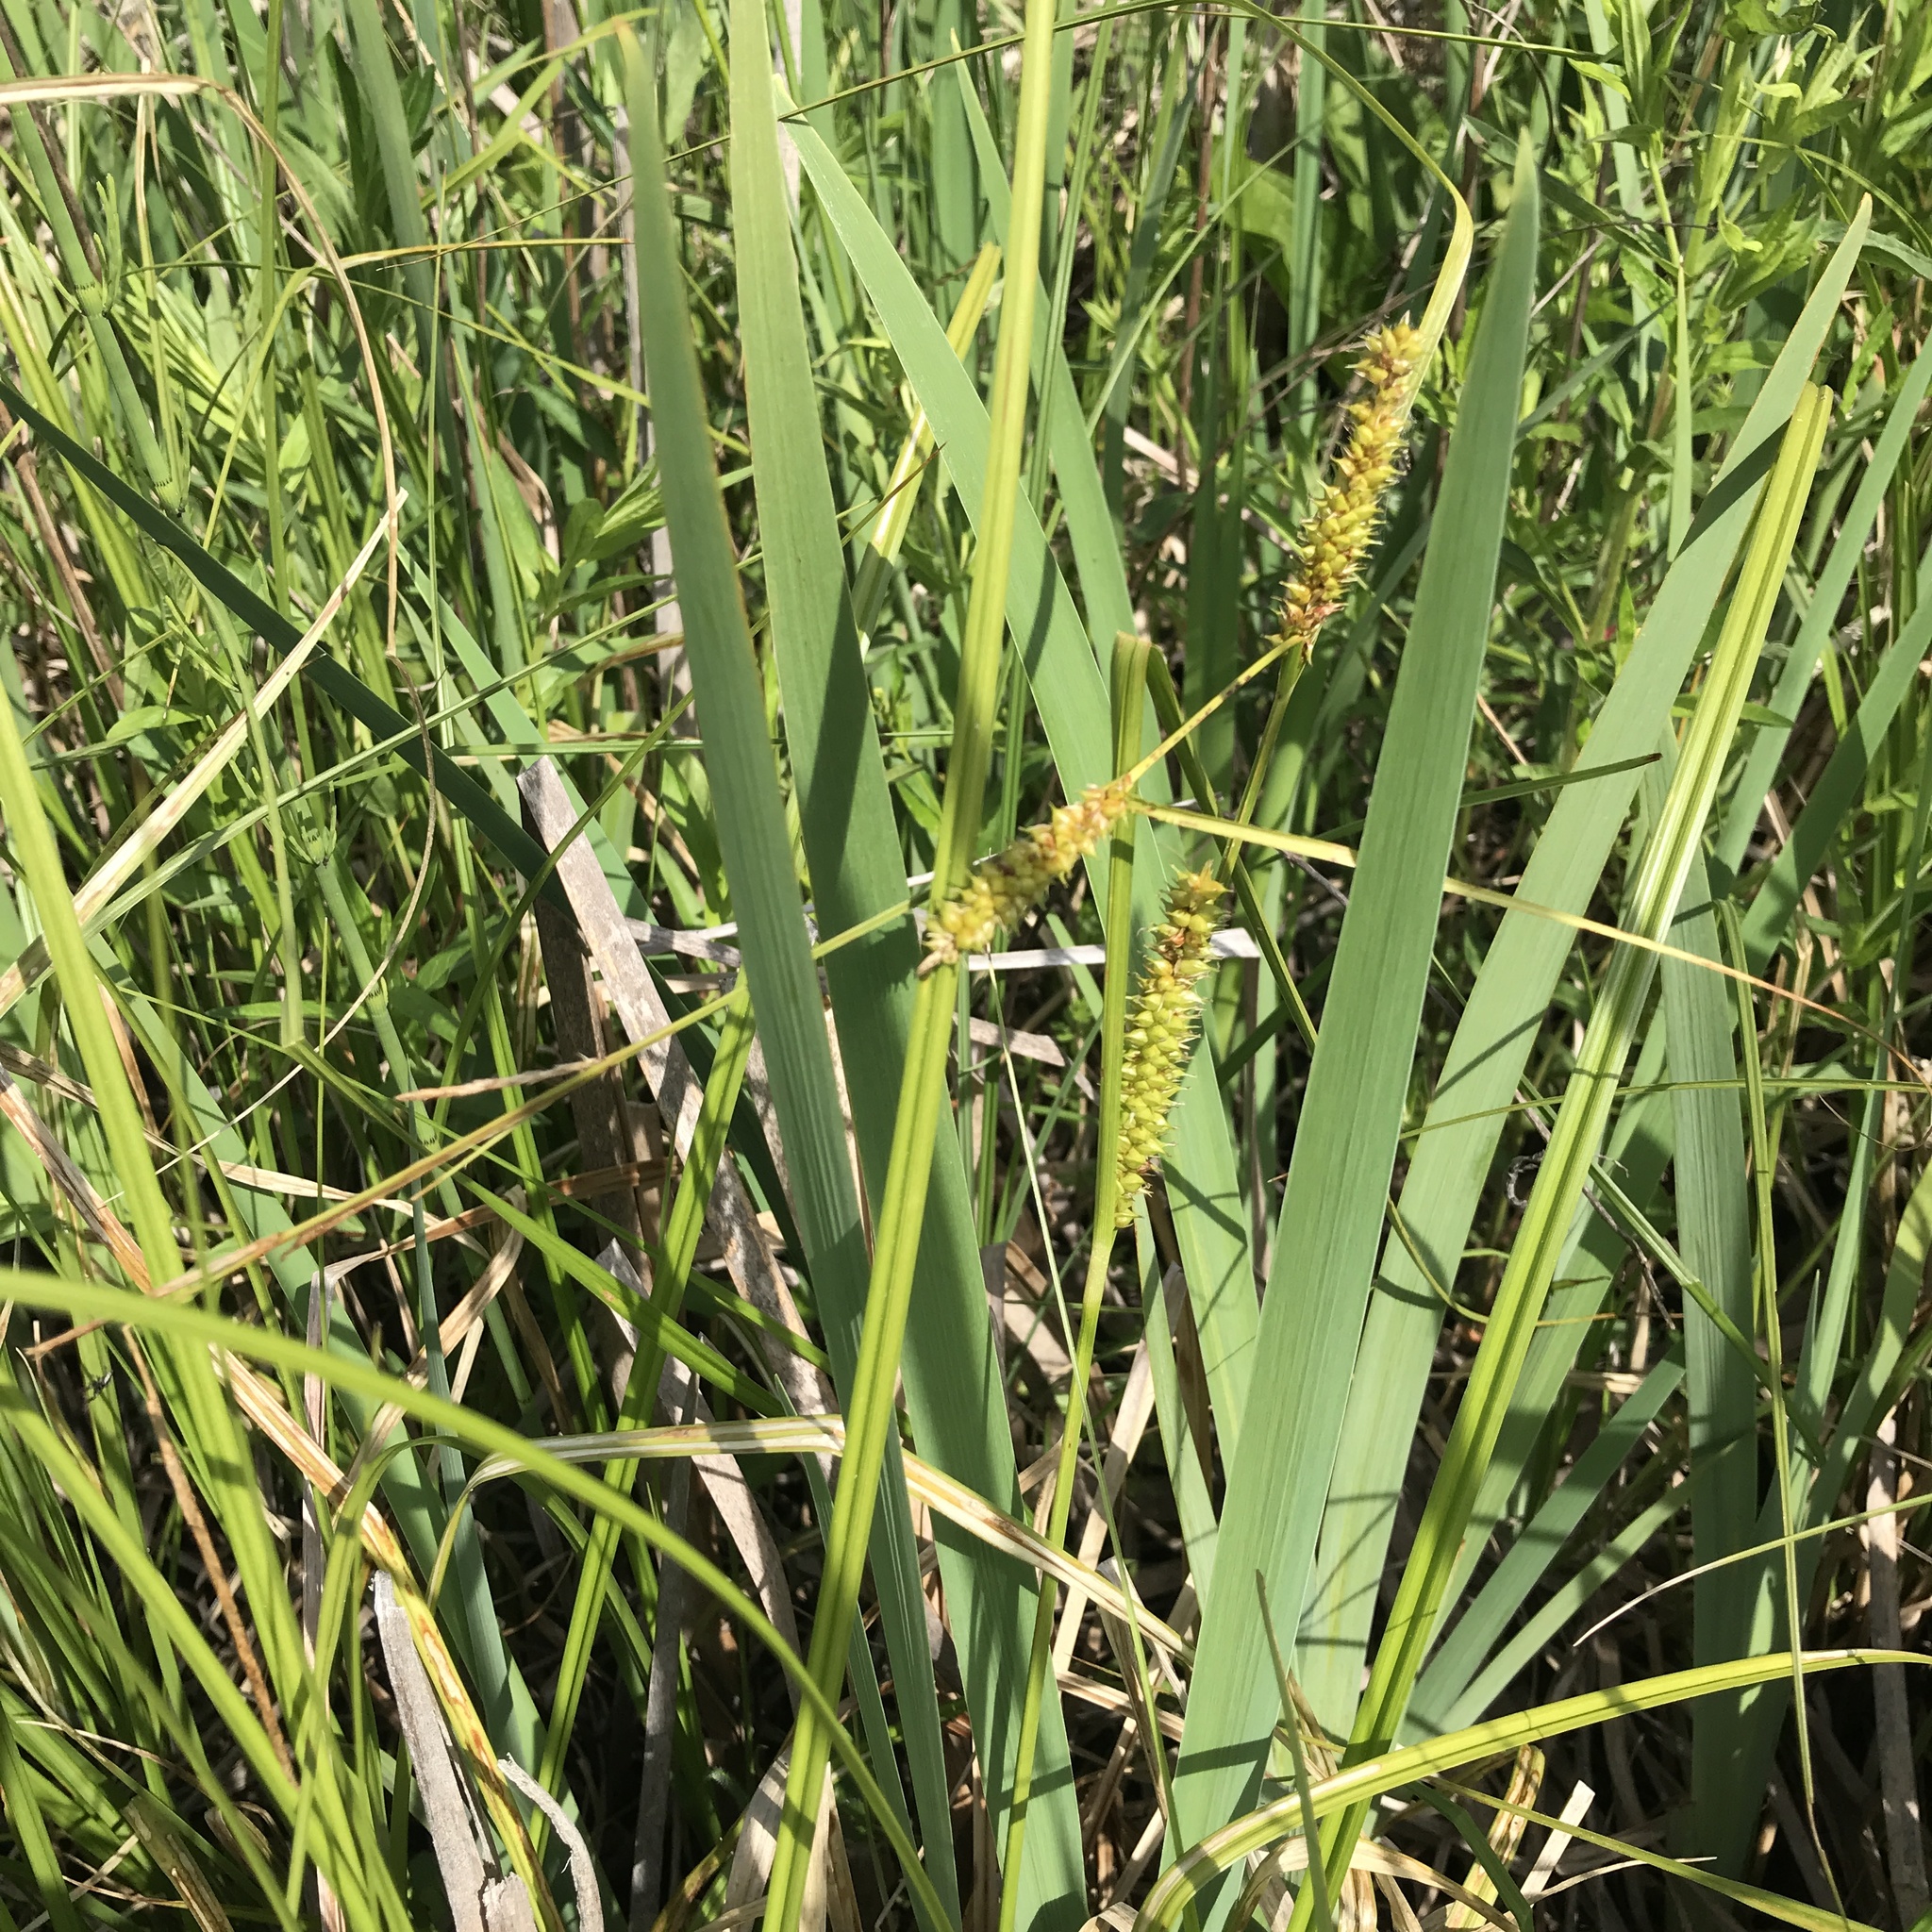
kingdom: Plantae
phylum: Tracheophyta
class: Liliopsida
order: Poales
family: Cyperaceae
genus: Carex
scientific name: Carex utriculata
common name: Beaked sedge
